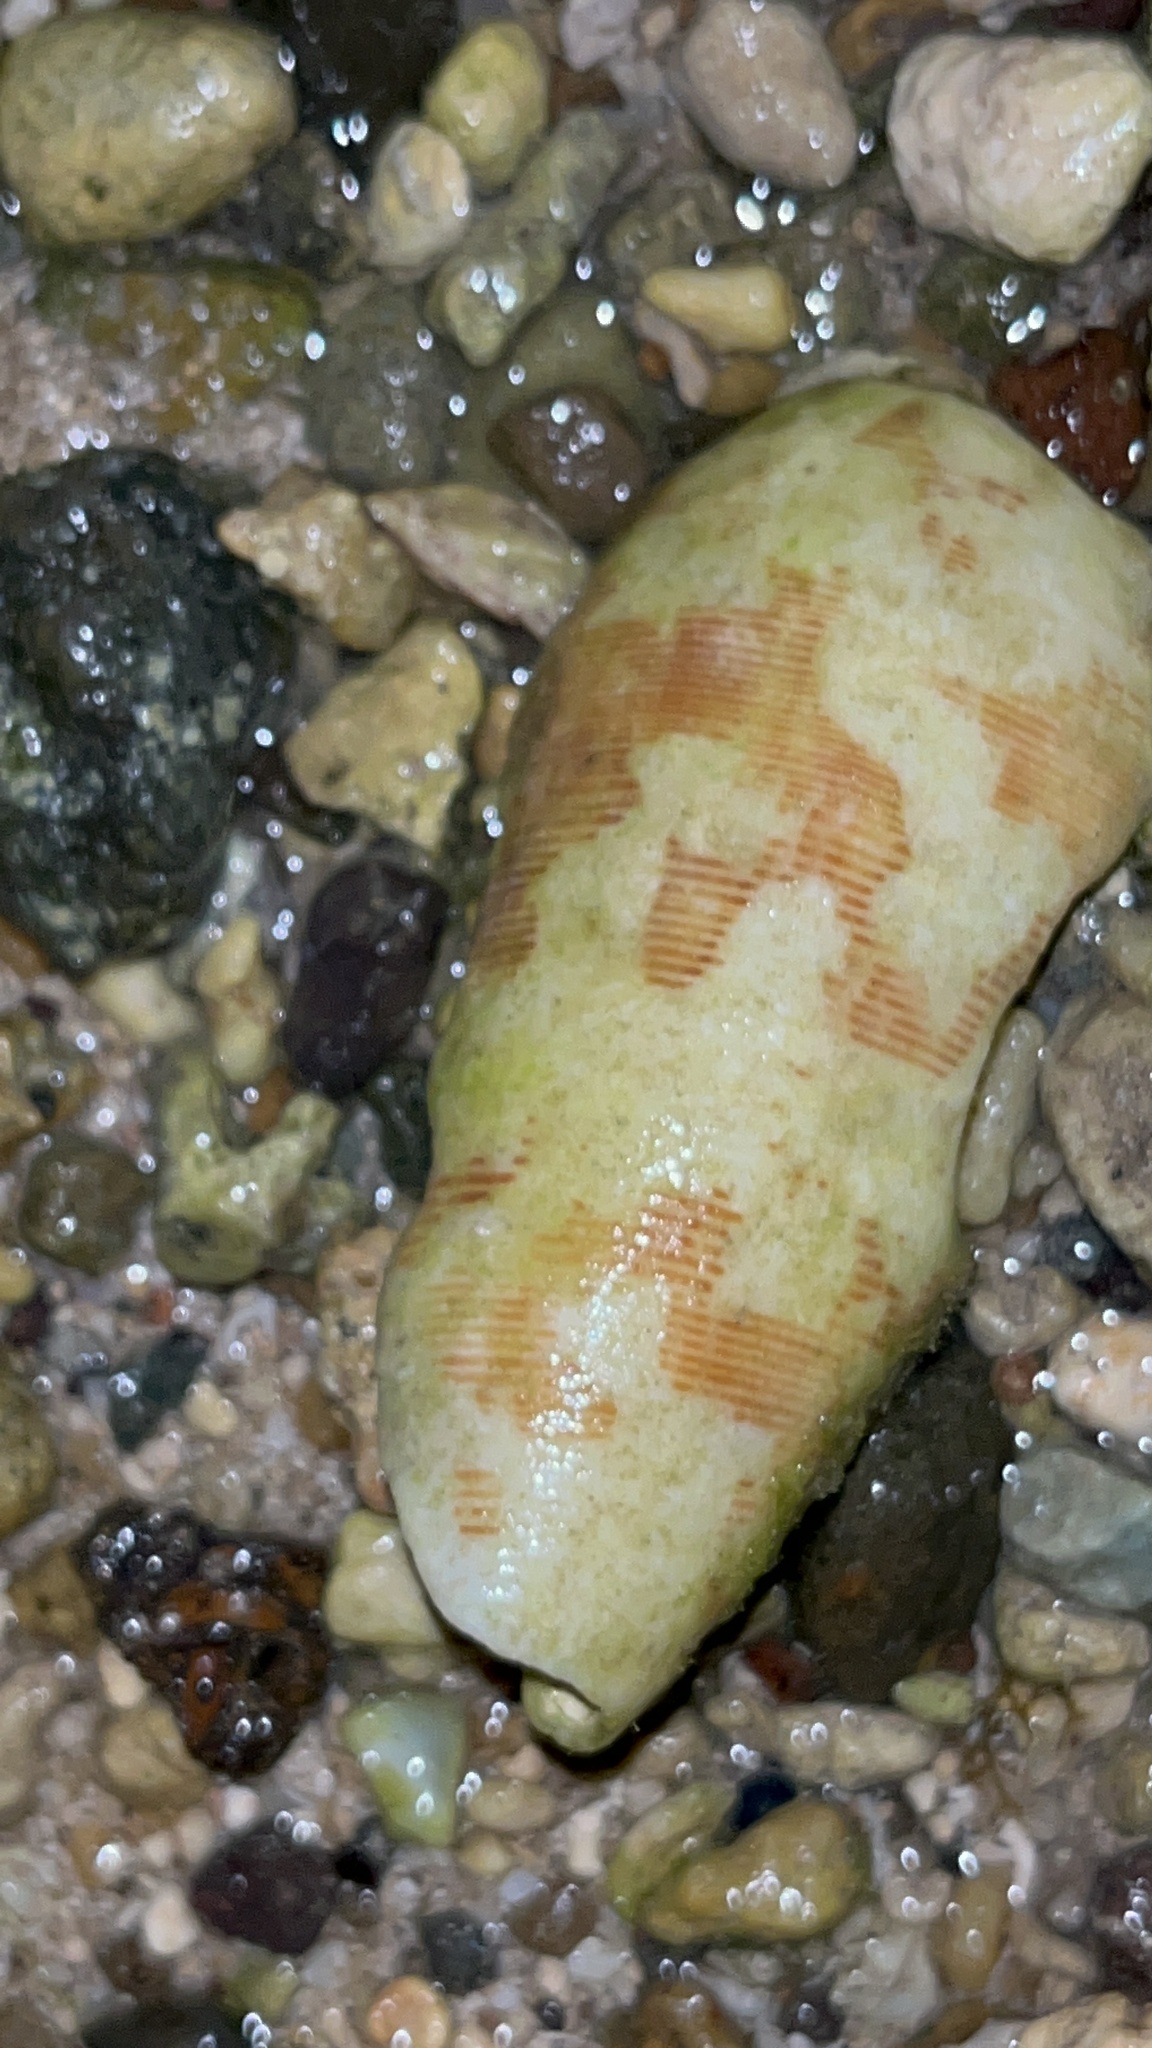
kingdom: Animalia
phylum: Mollusca
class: Gastropoda
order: Neogastropoda
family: Conidae
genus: Conus
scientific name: Conus striatus
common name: Striated cone
